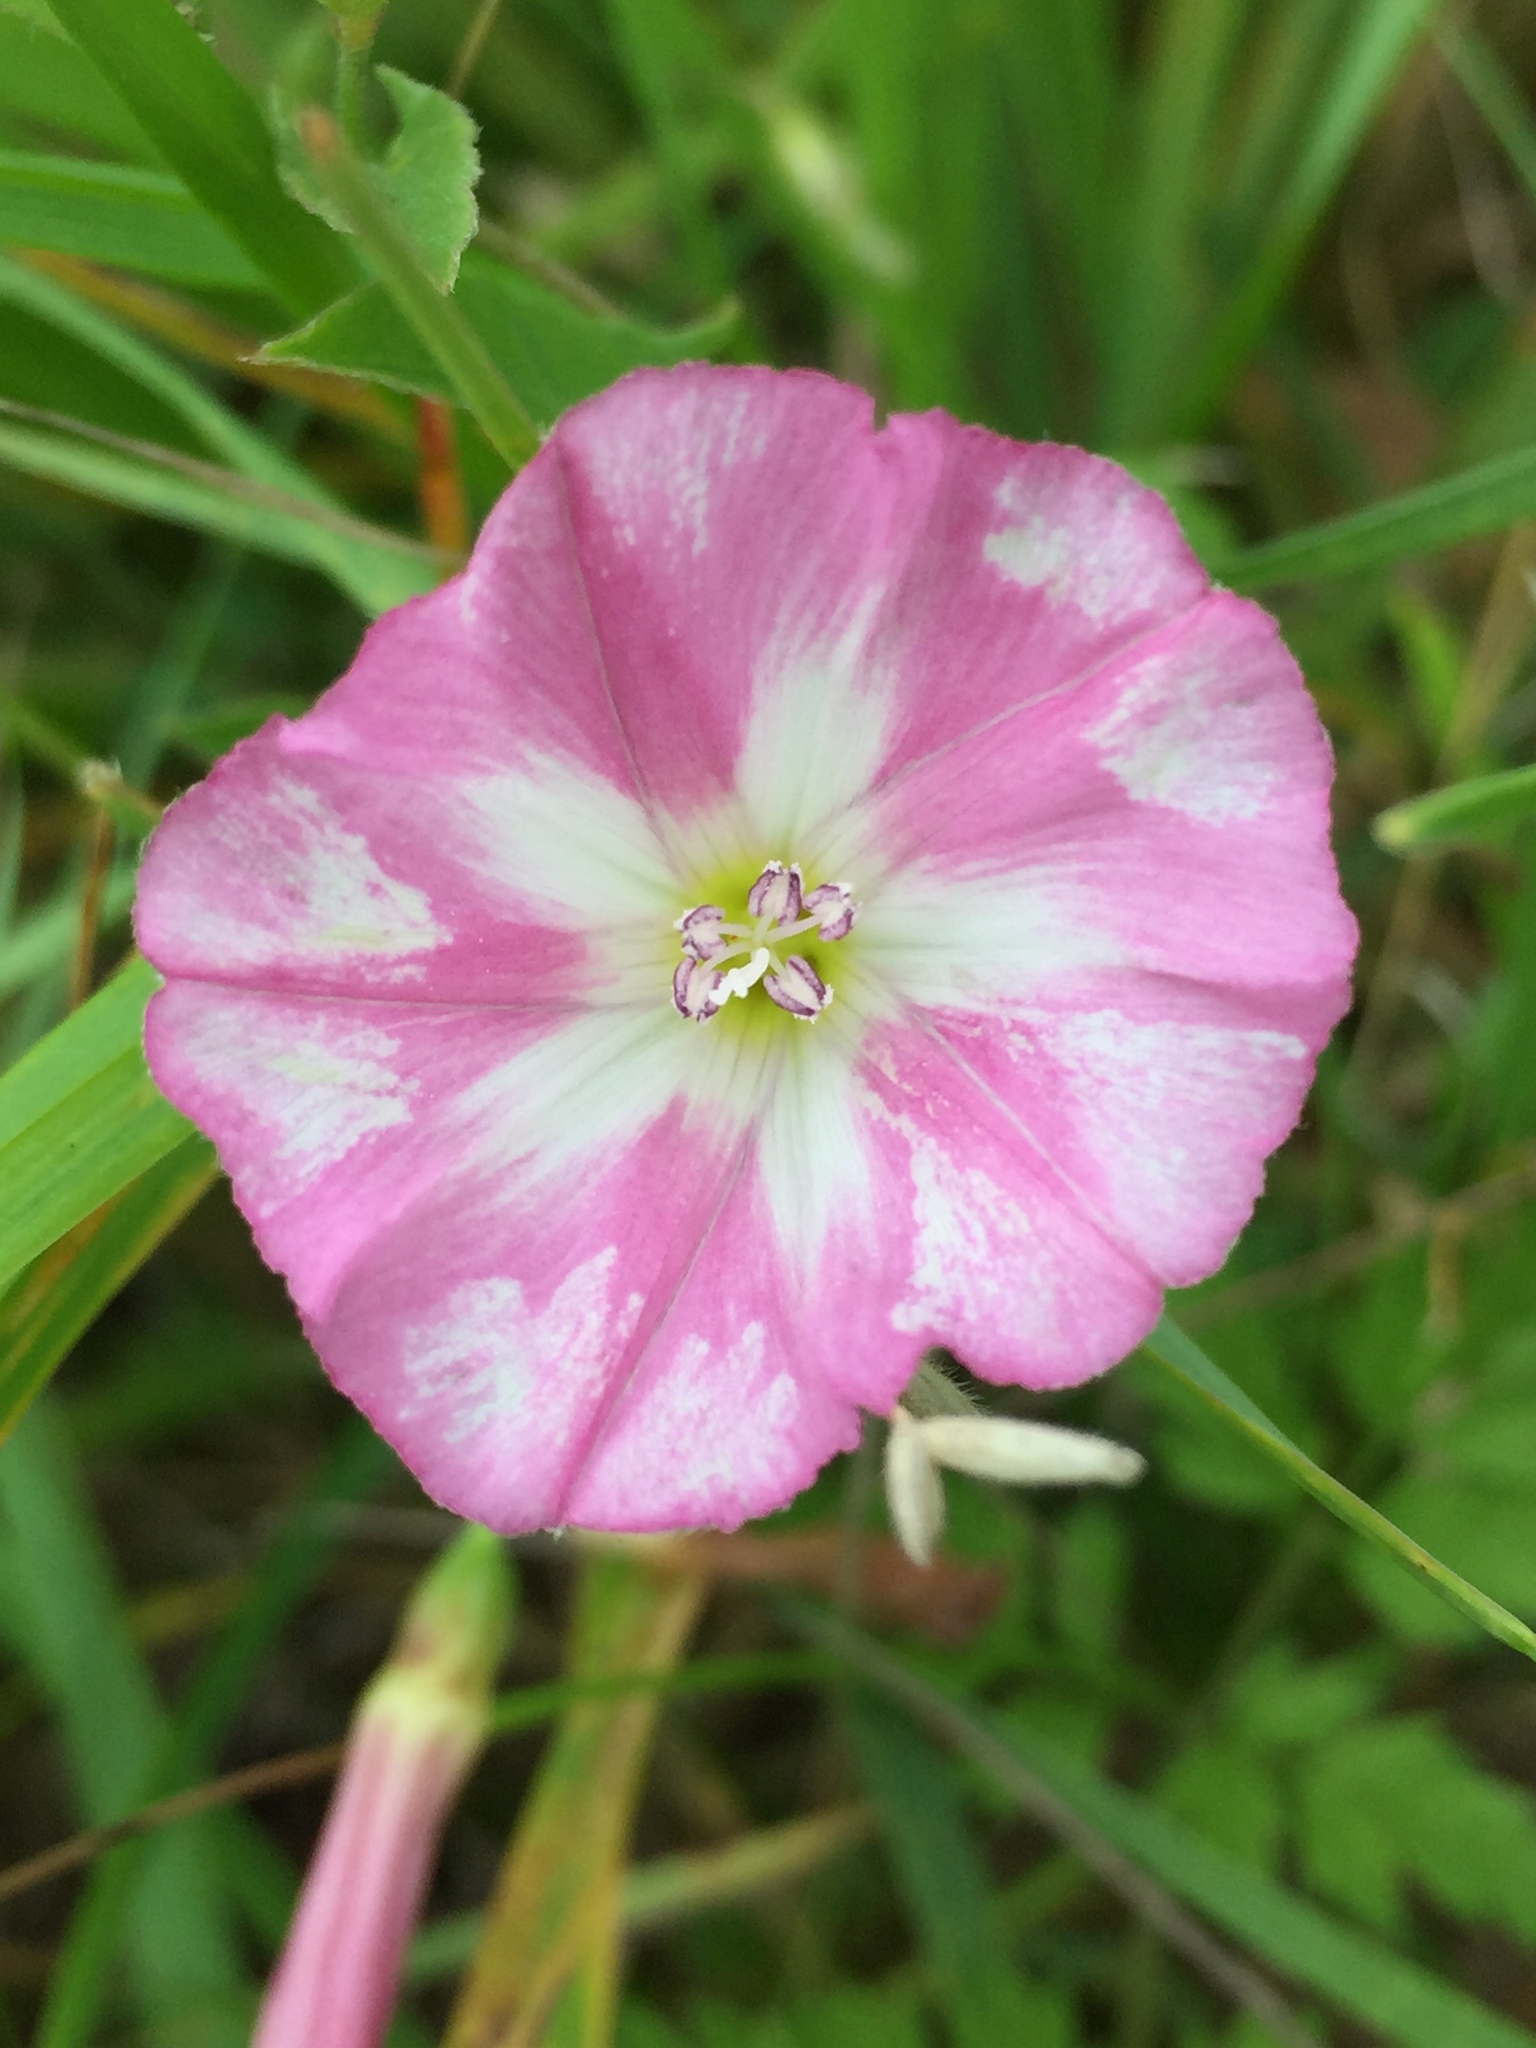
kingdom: Plantae
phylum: Tracheophyta
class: Magnoliopsida
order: Solanales
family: Convolvulaceae
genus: Convolvulus
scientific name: Convolvulus arvensis
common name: Field bindweed
